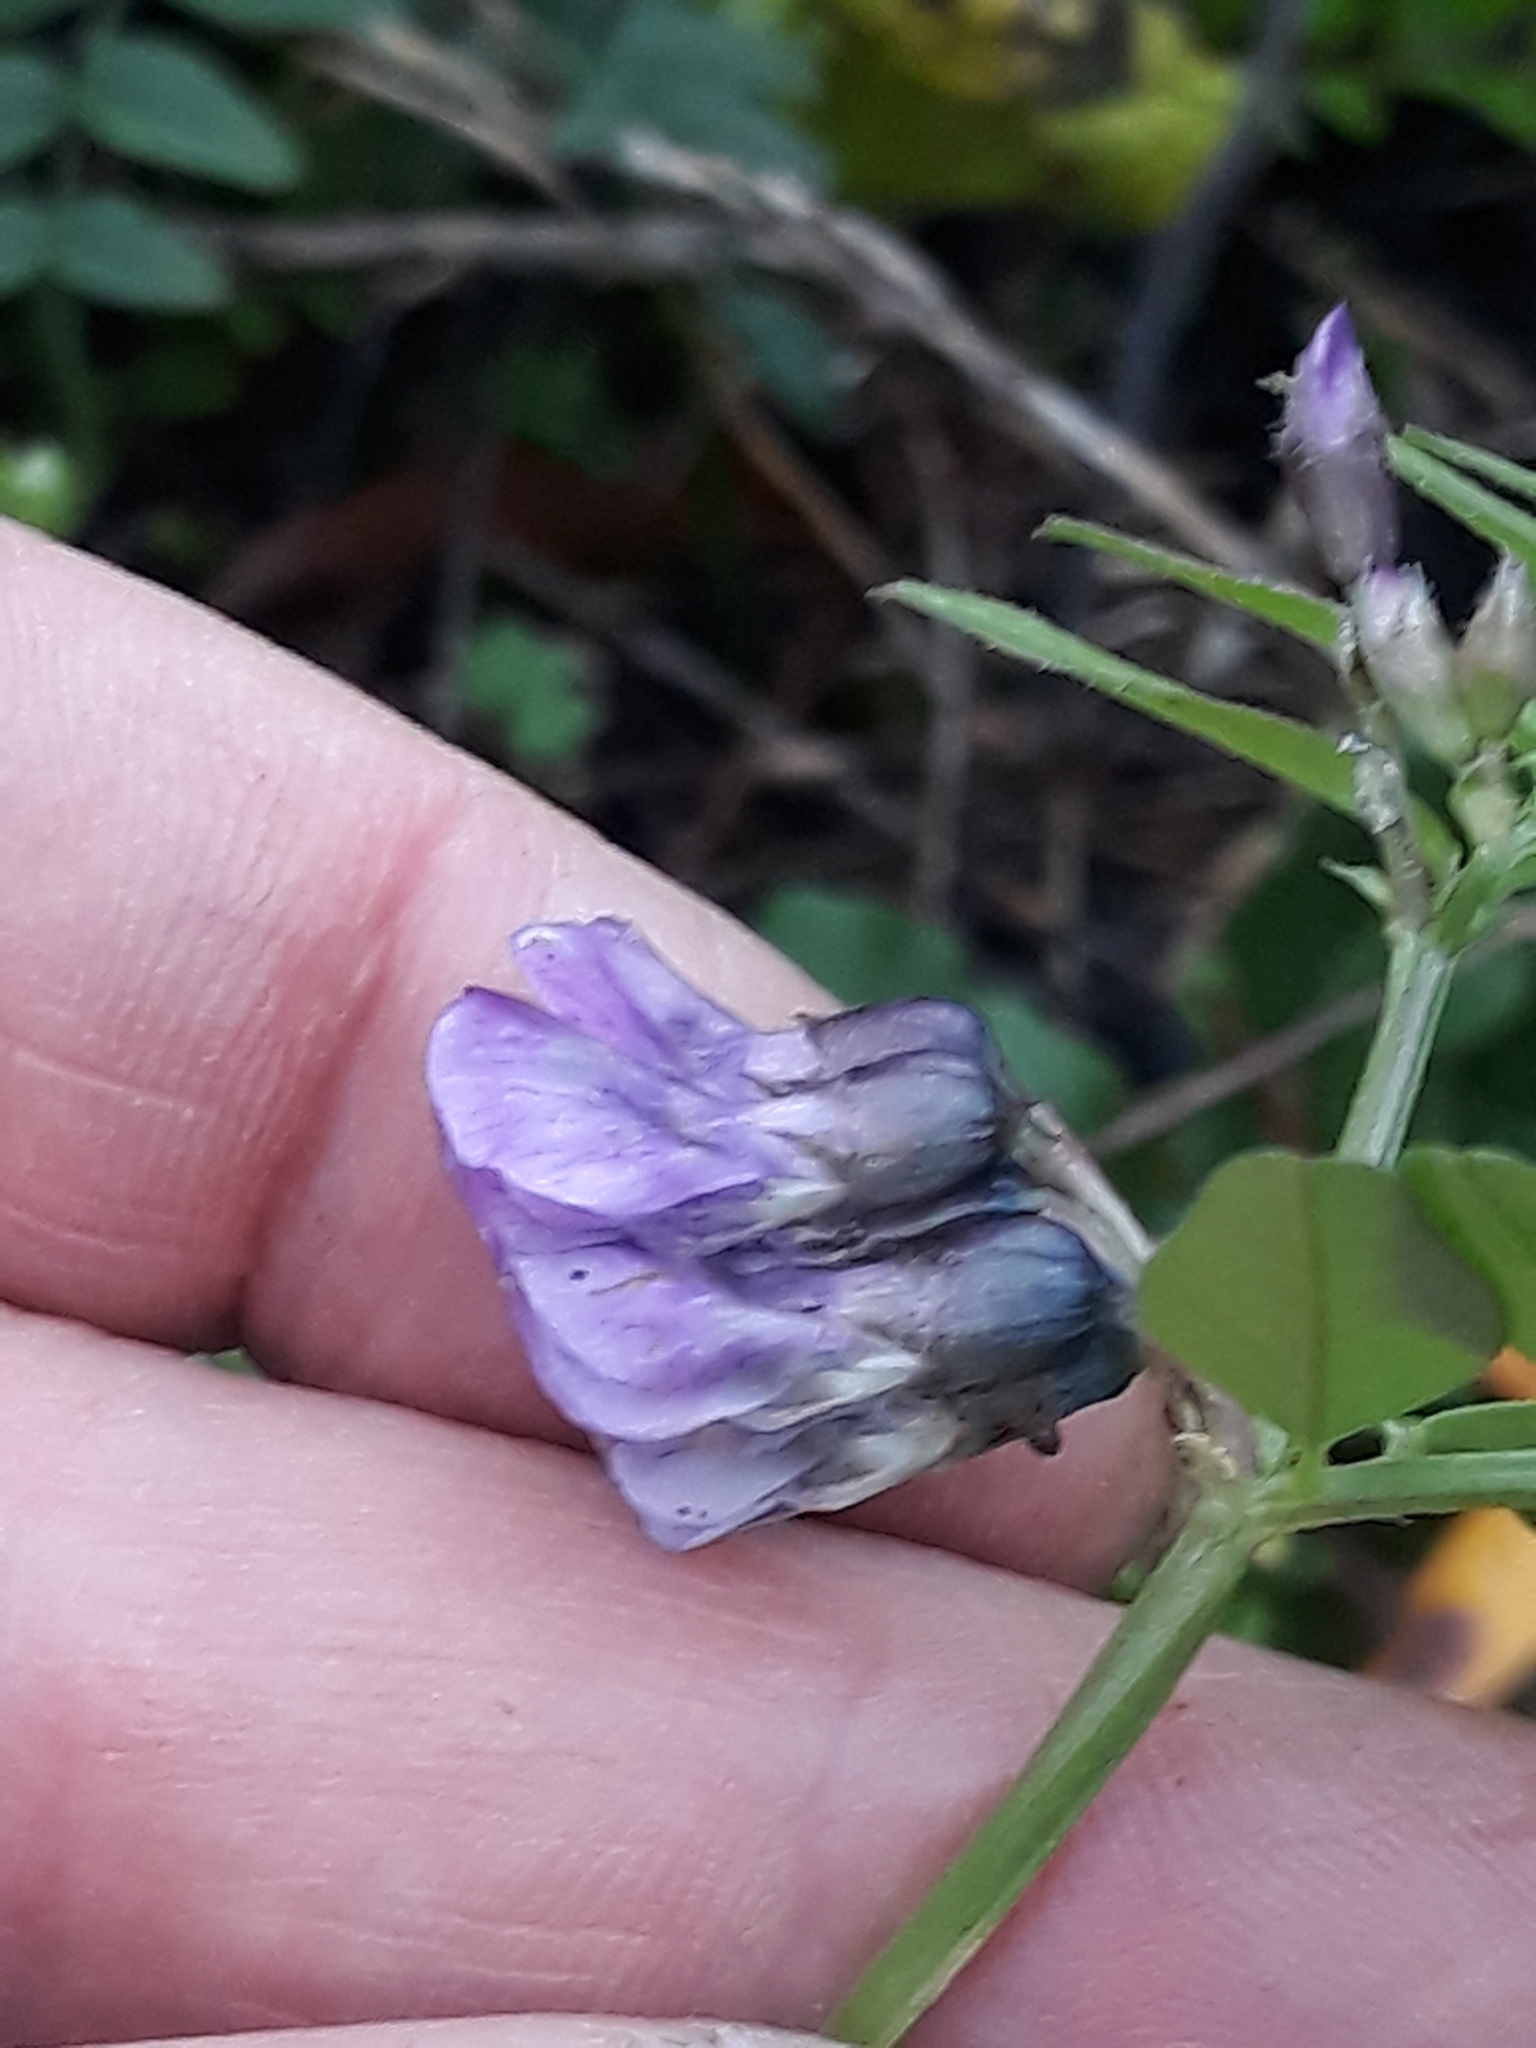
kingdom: Plantae
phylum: Tracheophyta
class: Magnoliopsida
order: Fabales
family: Fabaceae
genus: Vicia
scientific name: Vicia sepium
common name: Bush vetch
